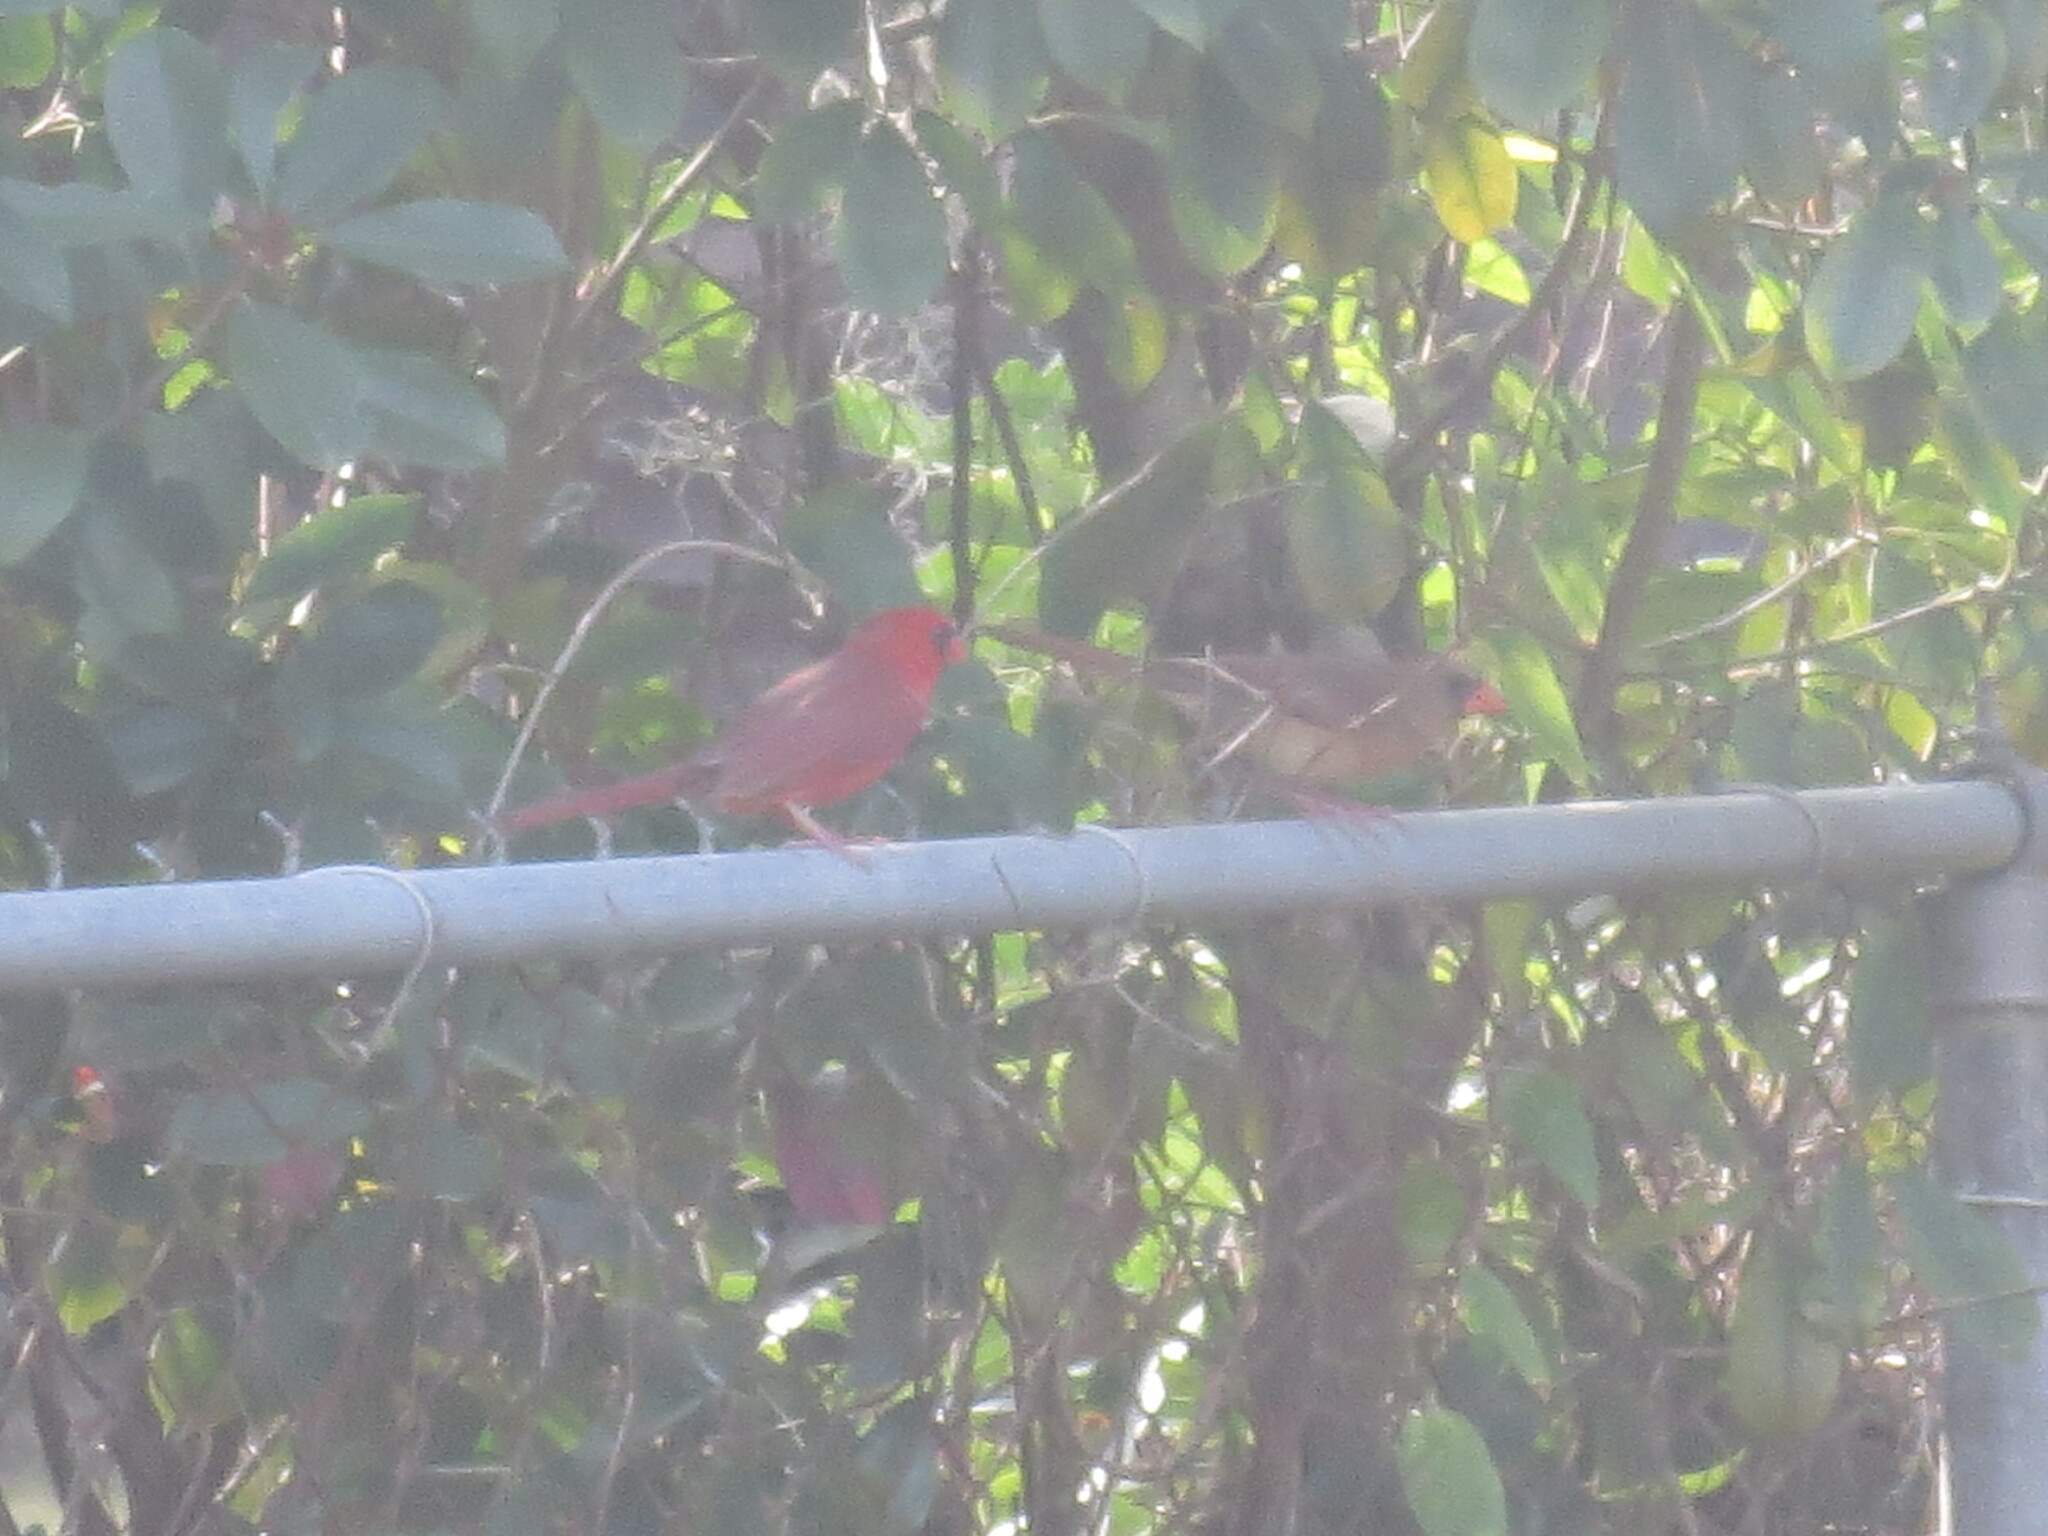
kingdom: Animalia
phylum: Chordata
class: Aves
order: Passeriformes
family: Cardinalidae
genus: Cardinalis
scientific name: Cardinalis cardinalis
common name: Northern cardinal
